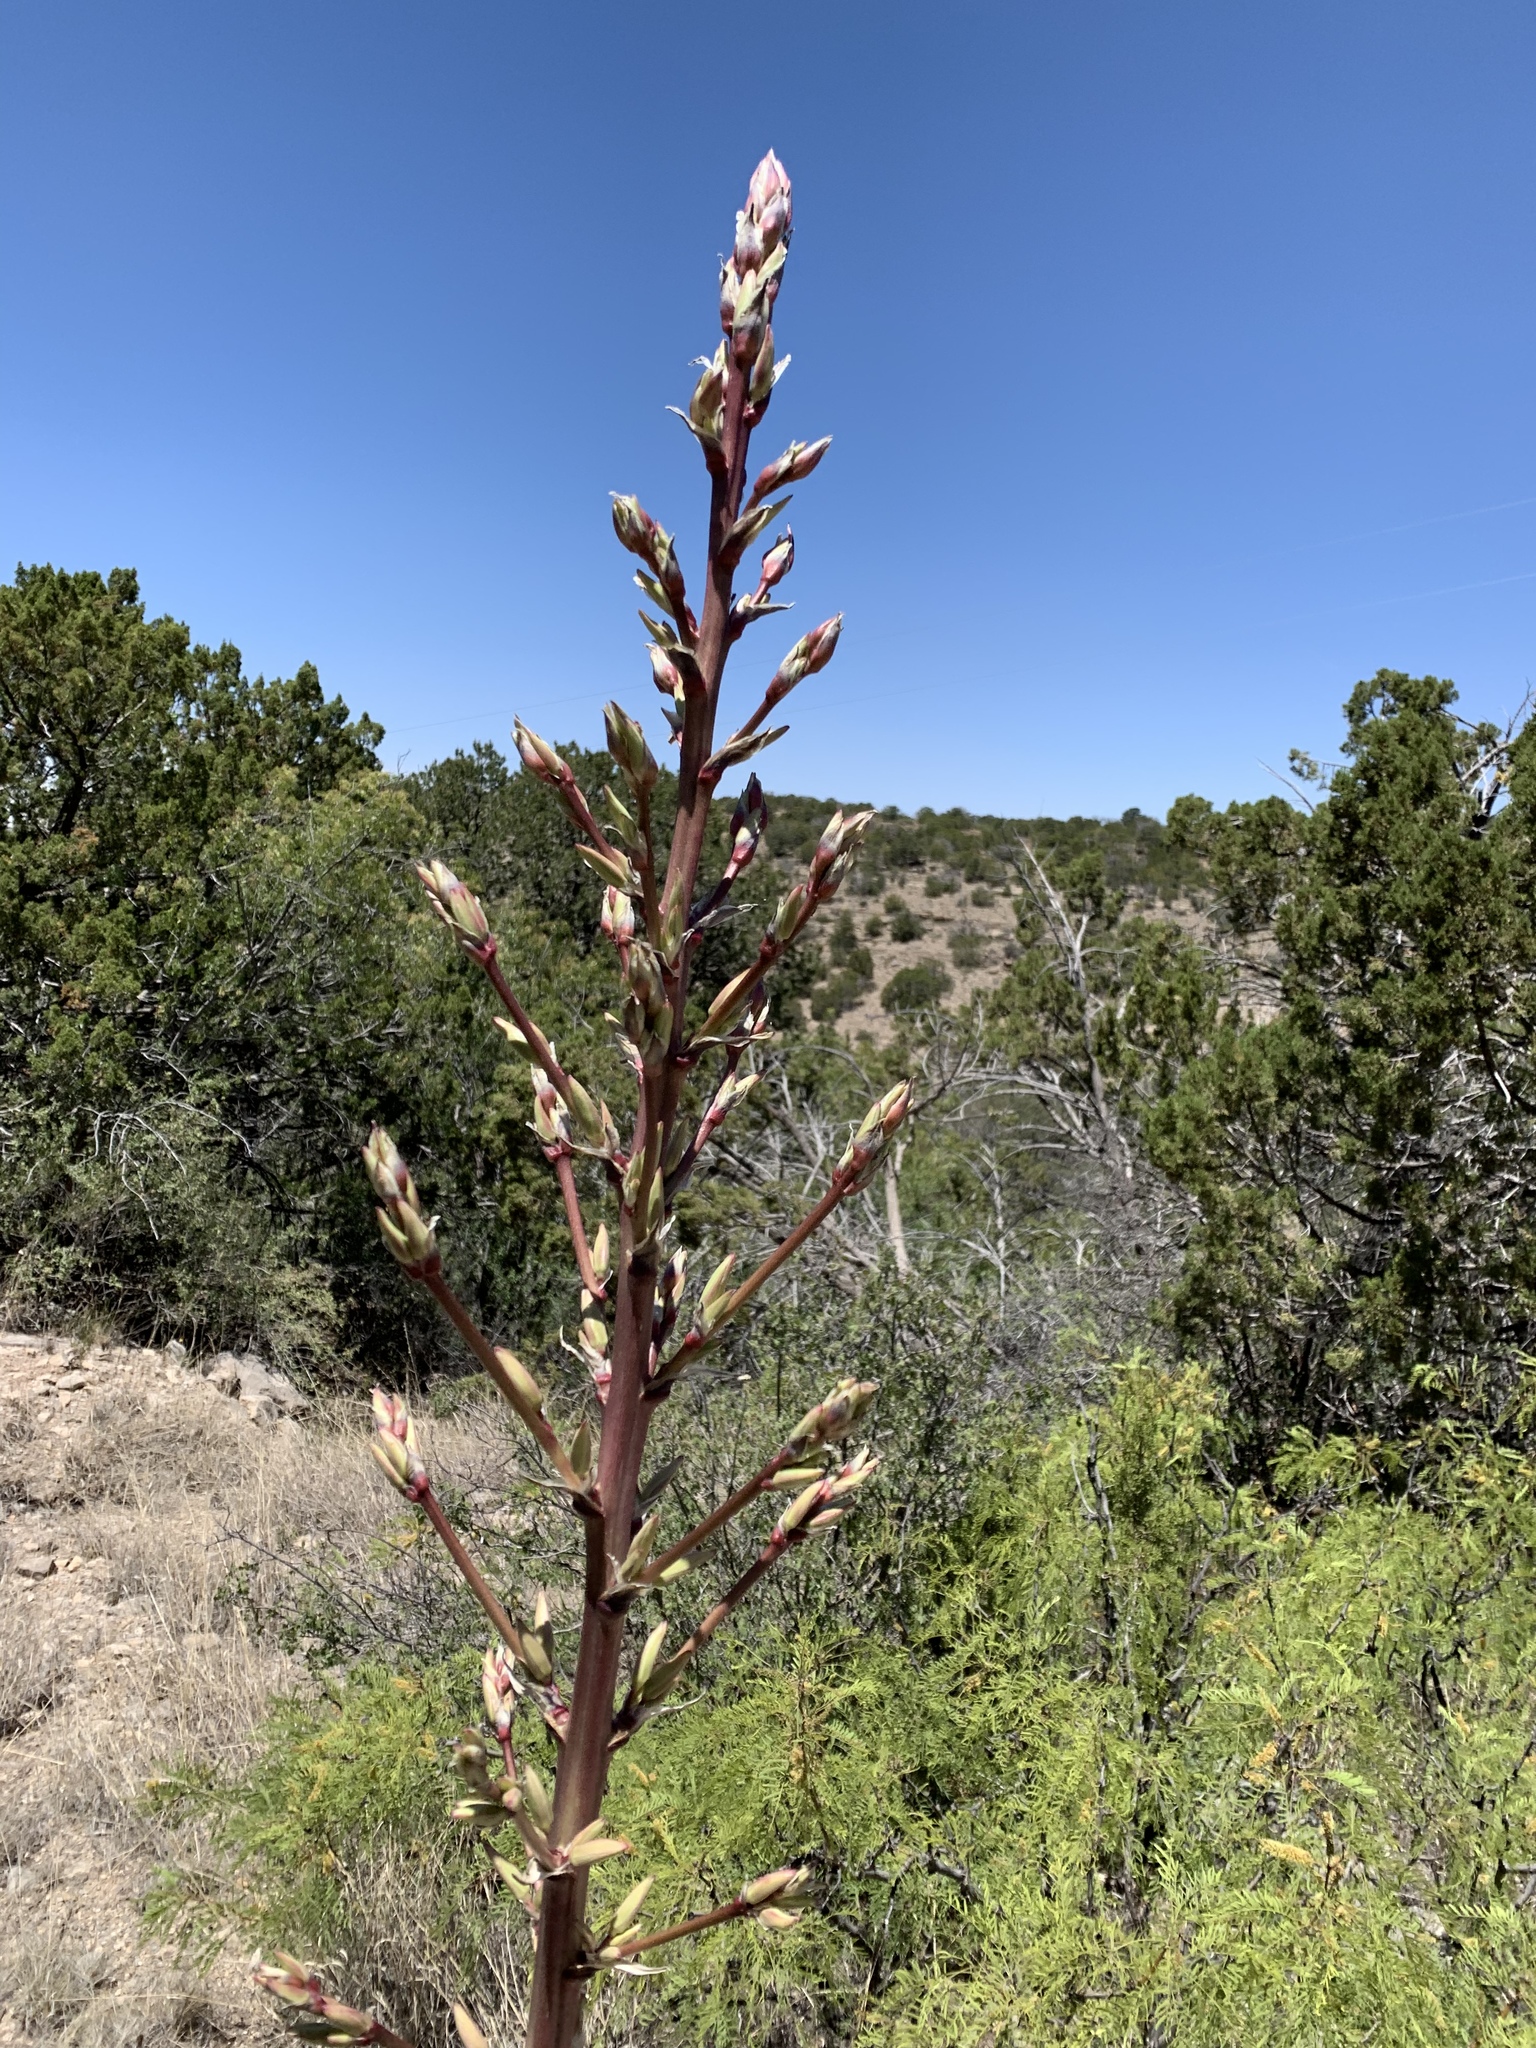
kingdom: Plantae
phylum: Tracheophyta
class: Liliopsida
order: Asparagales
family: Asparagaceae
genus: Yucca
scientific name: Yucca elata
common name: Palmella
